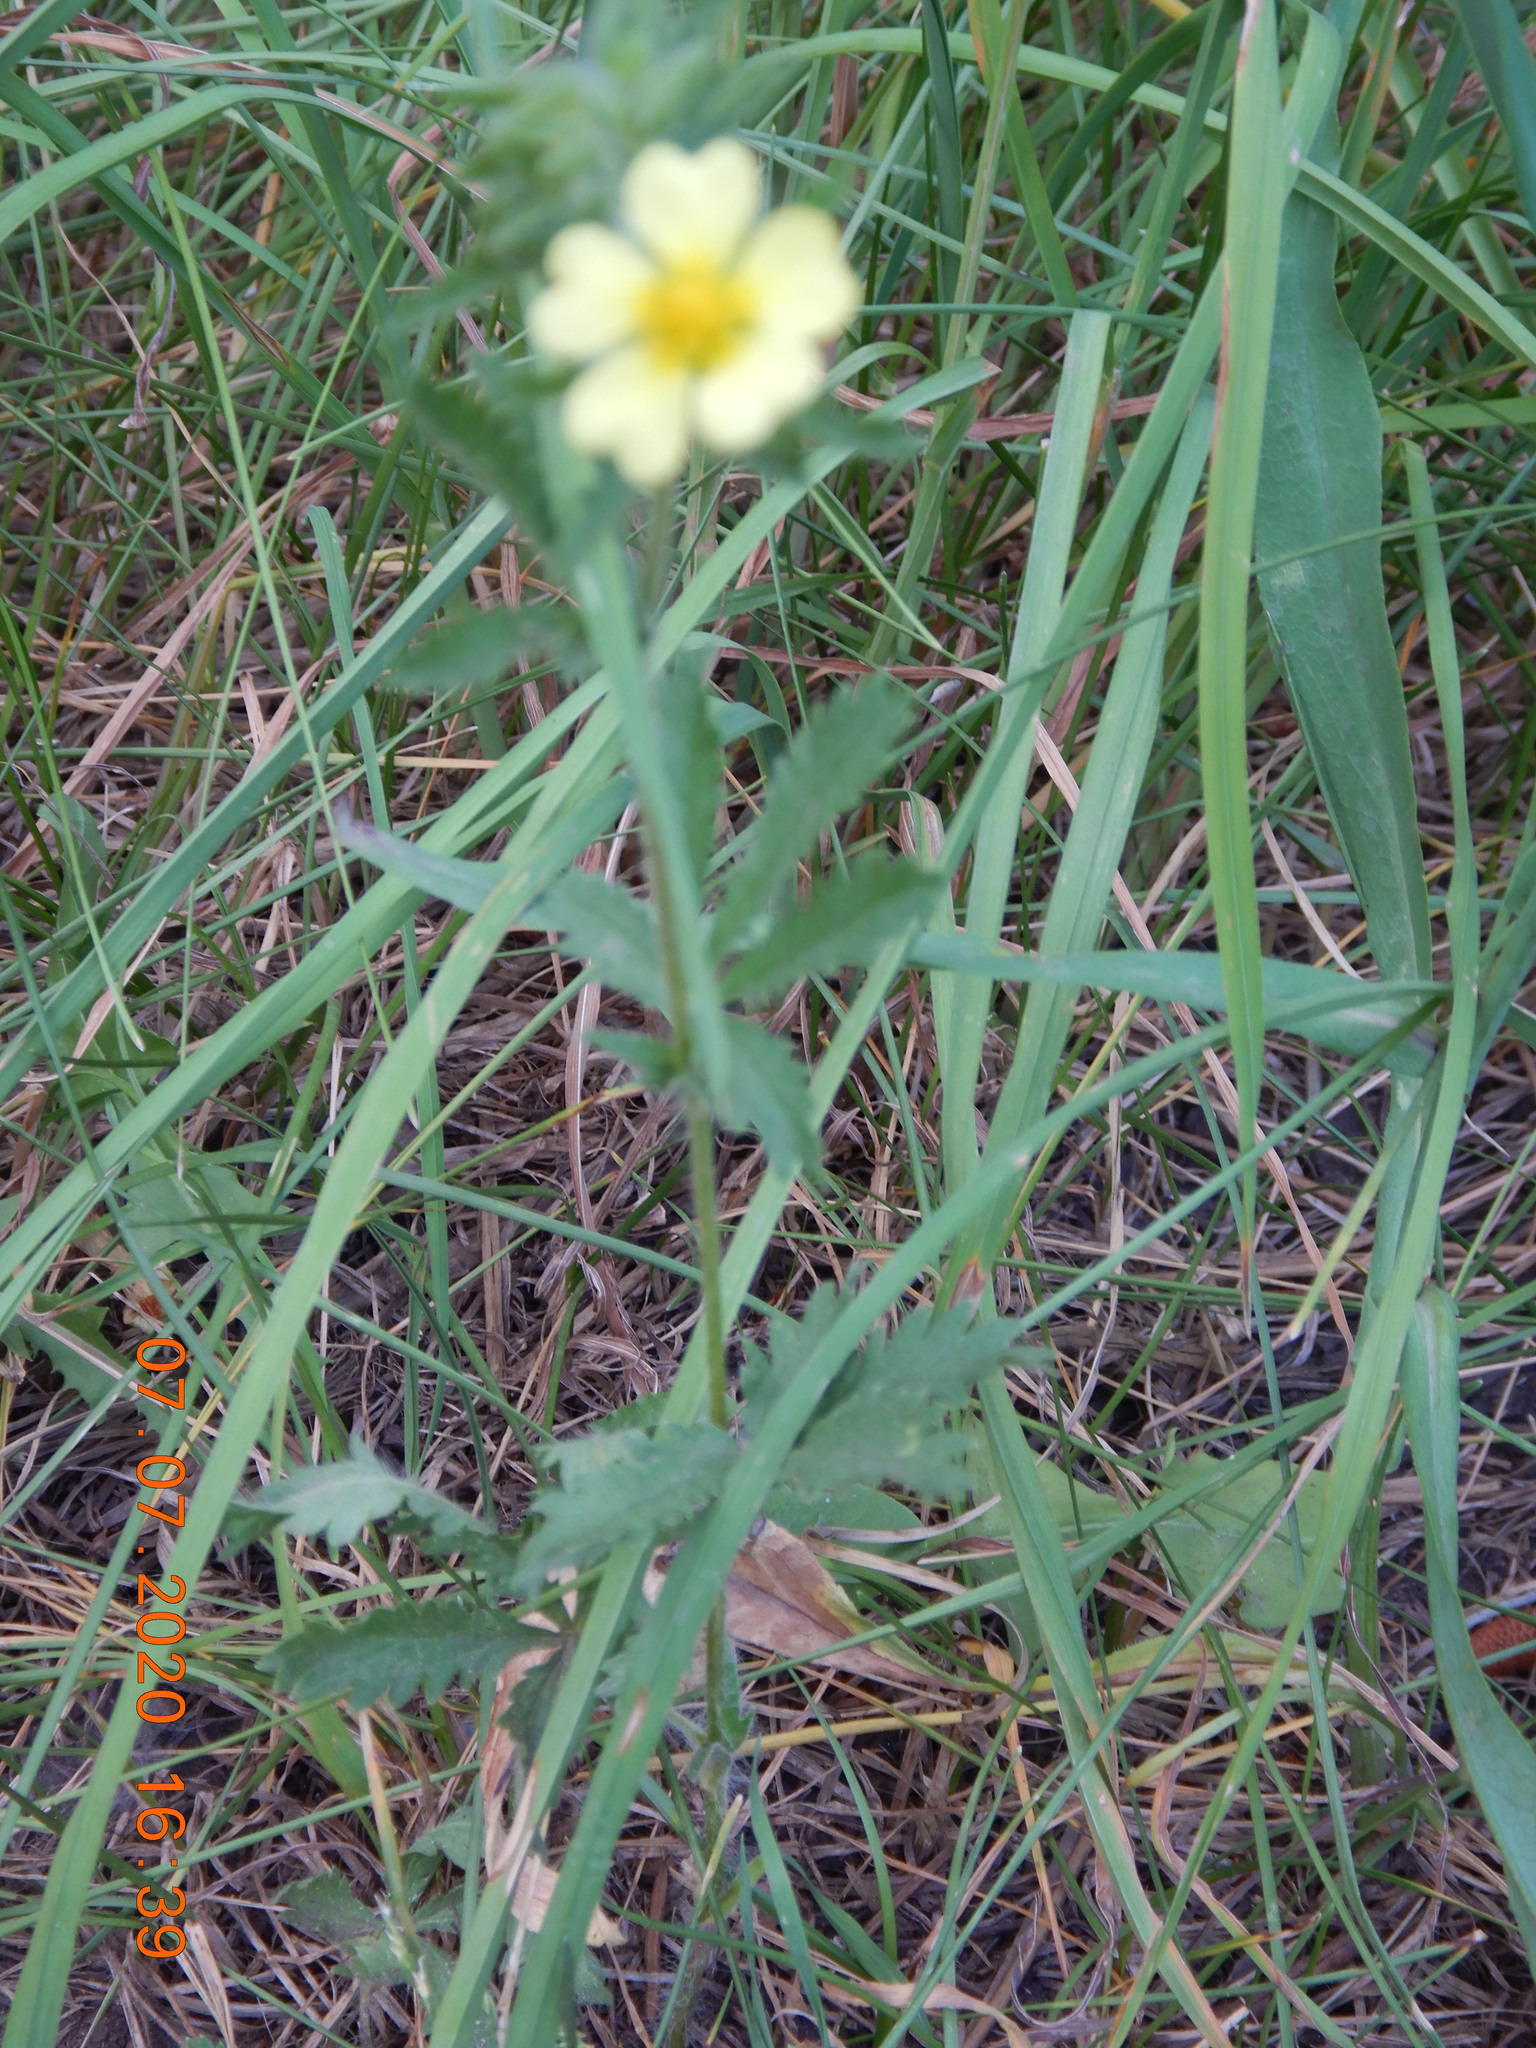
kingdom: Plantae
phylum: Tracheophyta
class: Magnoliopsida
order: Rosales
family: Rosaceae
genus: Potentilla
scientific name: Potentilla recta
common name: Sulphur cinquefoil
